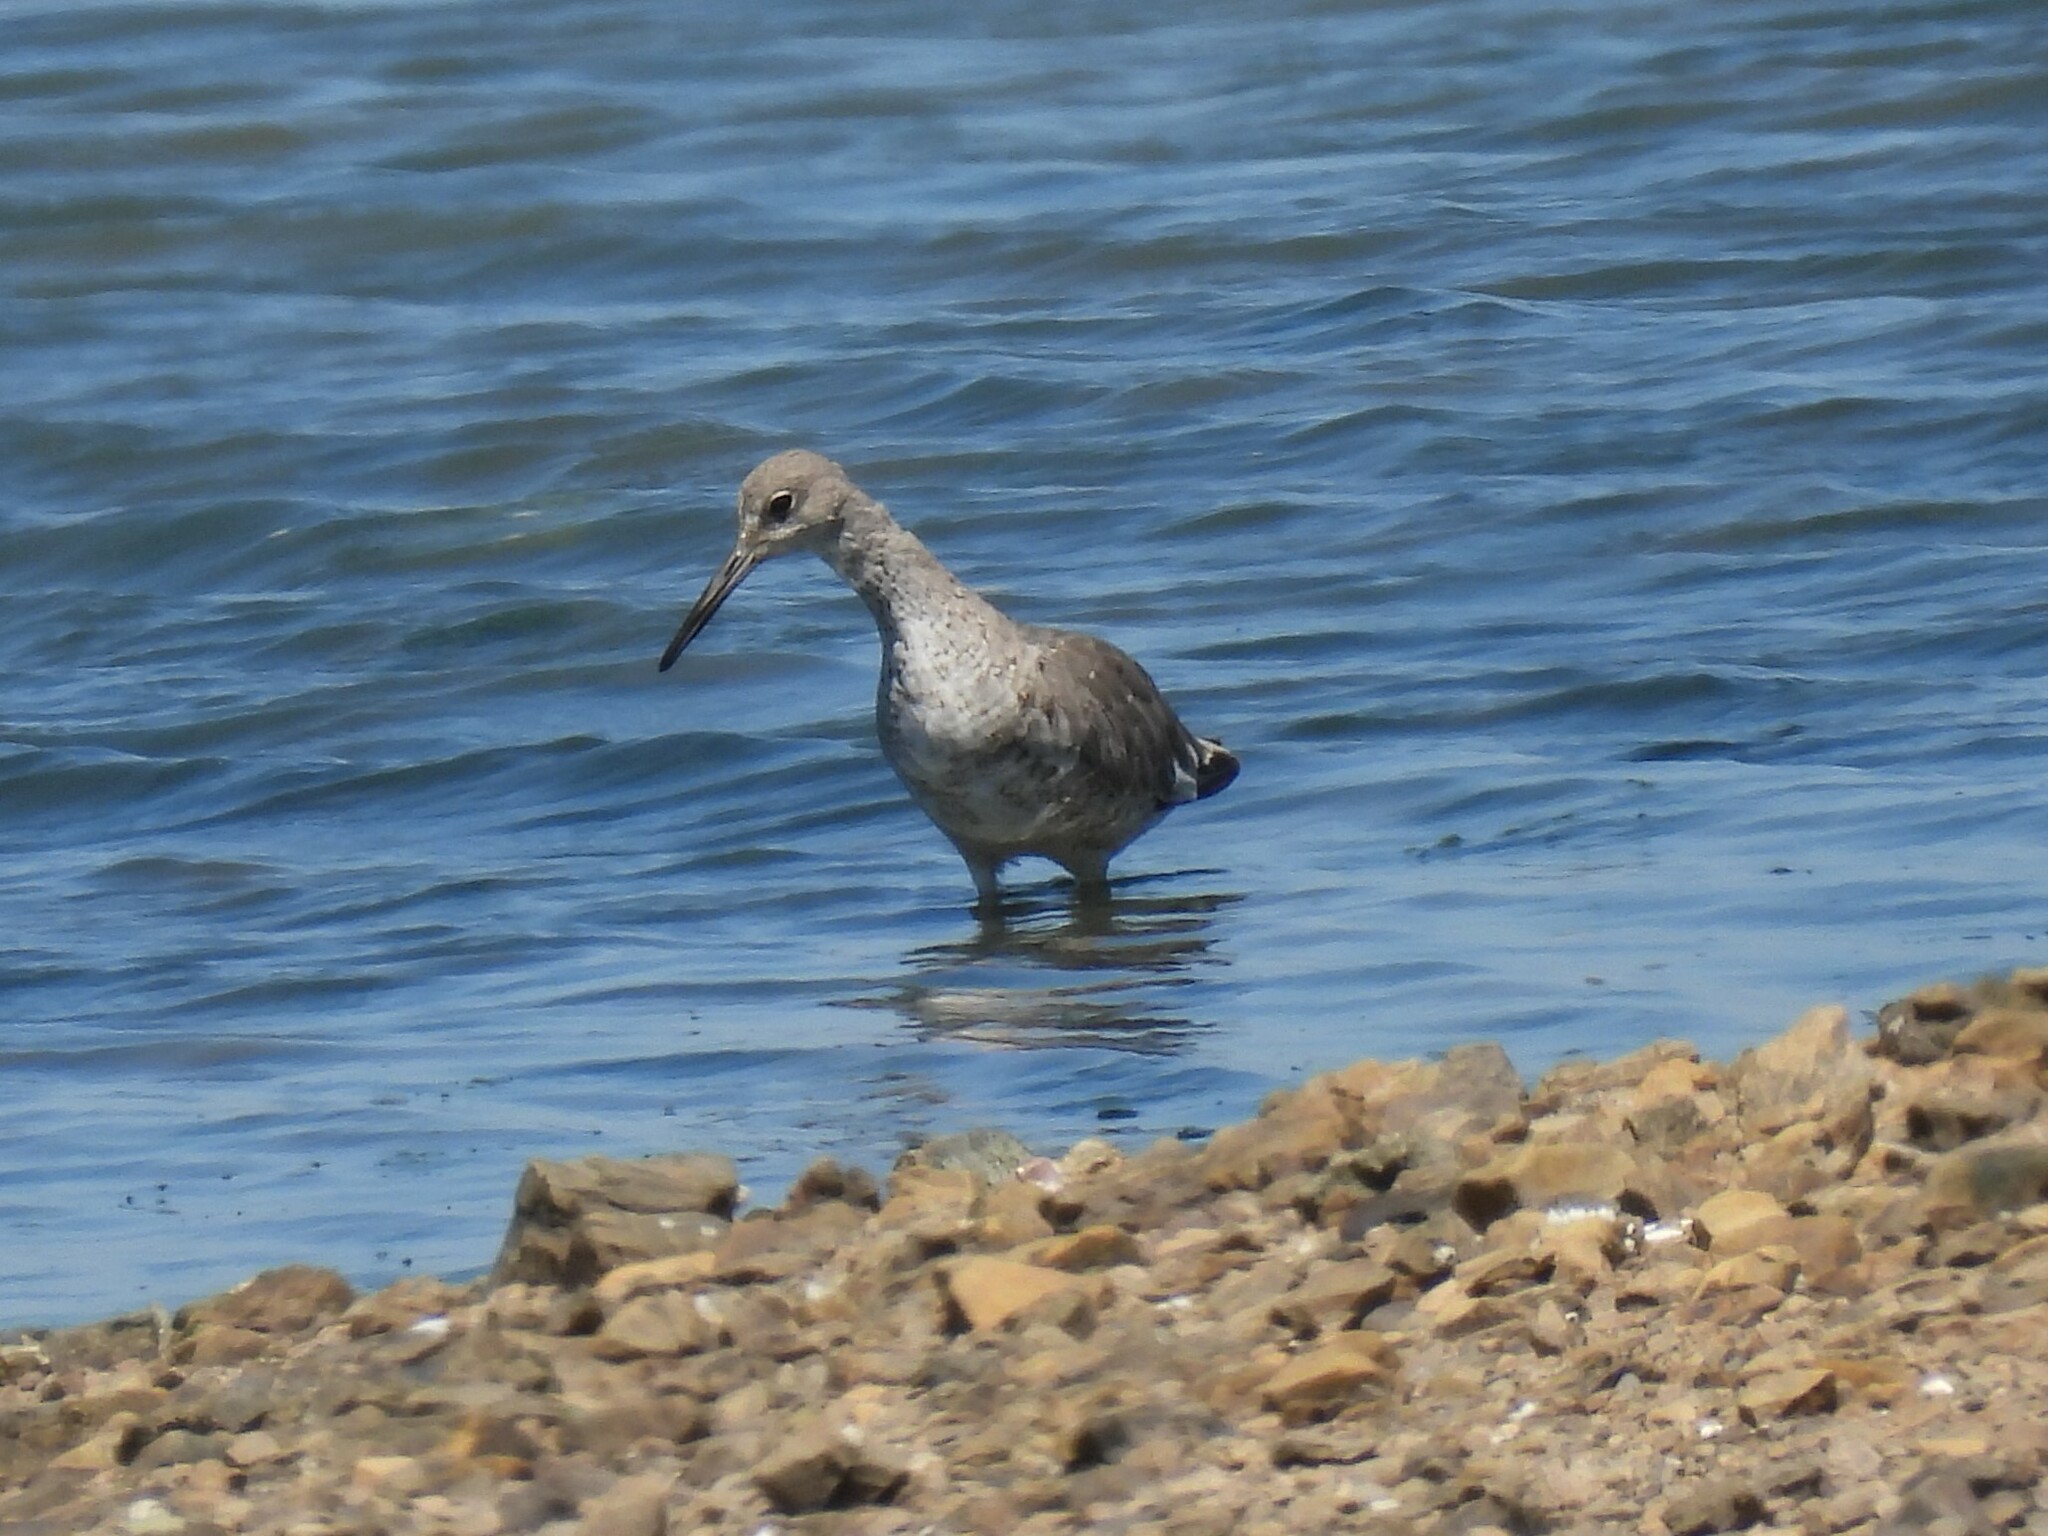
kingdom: Animalia
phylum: Chordata
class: Aves
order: Charadriiformes
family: Scolopacidae
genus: Tringa
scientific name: Tringa semipalmata
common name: Willet
